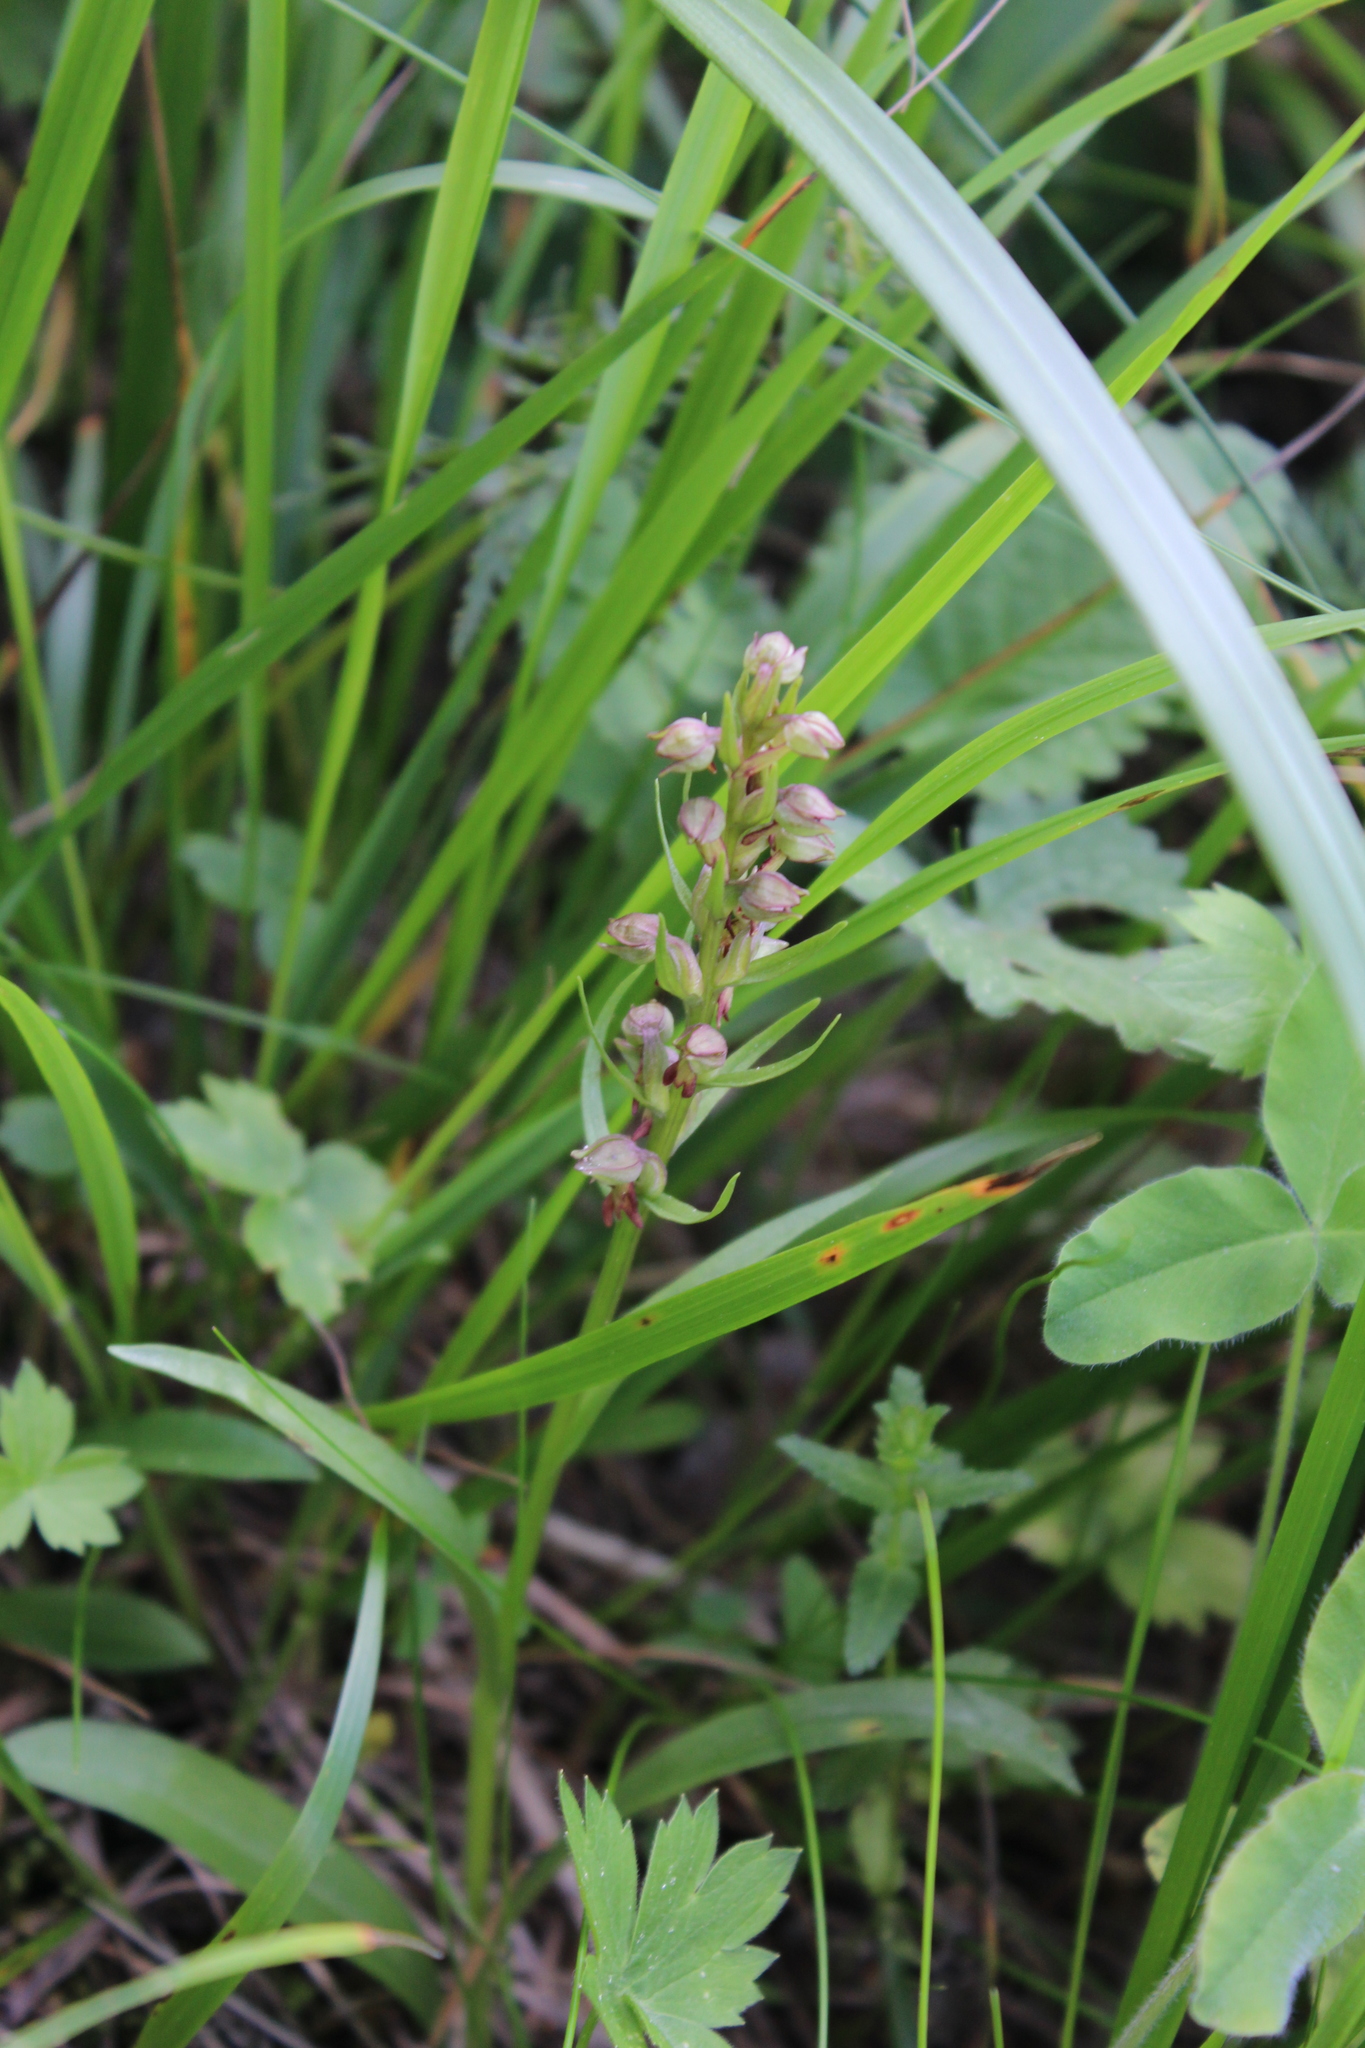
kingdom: Plantae
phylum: Tracheophyta
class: Liliopsida
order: Asparagales
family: Orchidaceae
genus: Dactylorhiza
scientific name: Dactylorhiza viridis
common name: Longbract frog orchid
